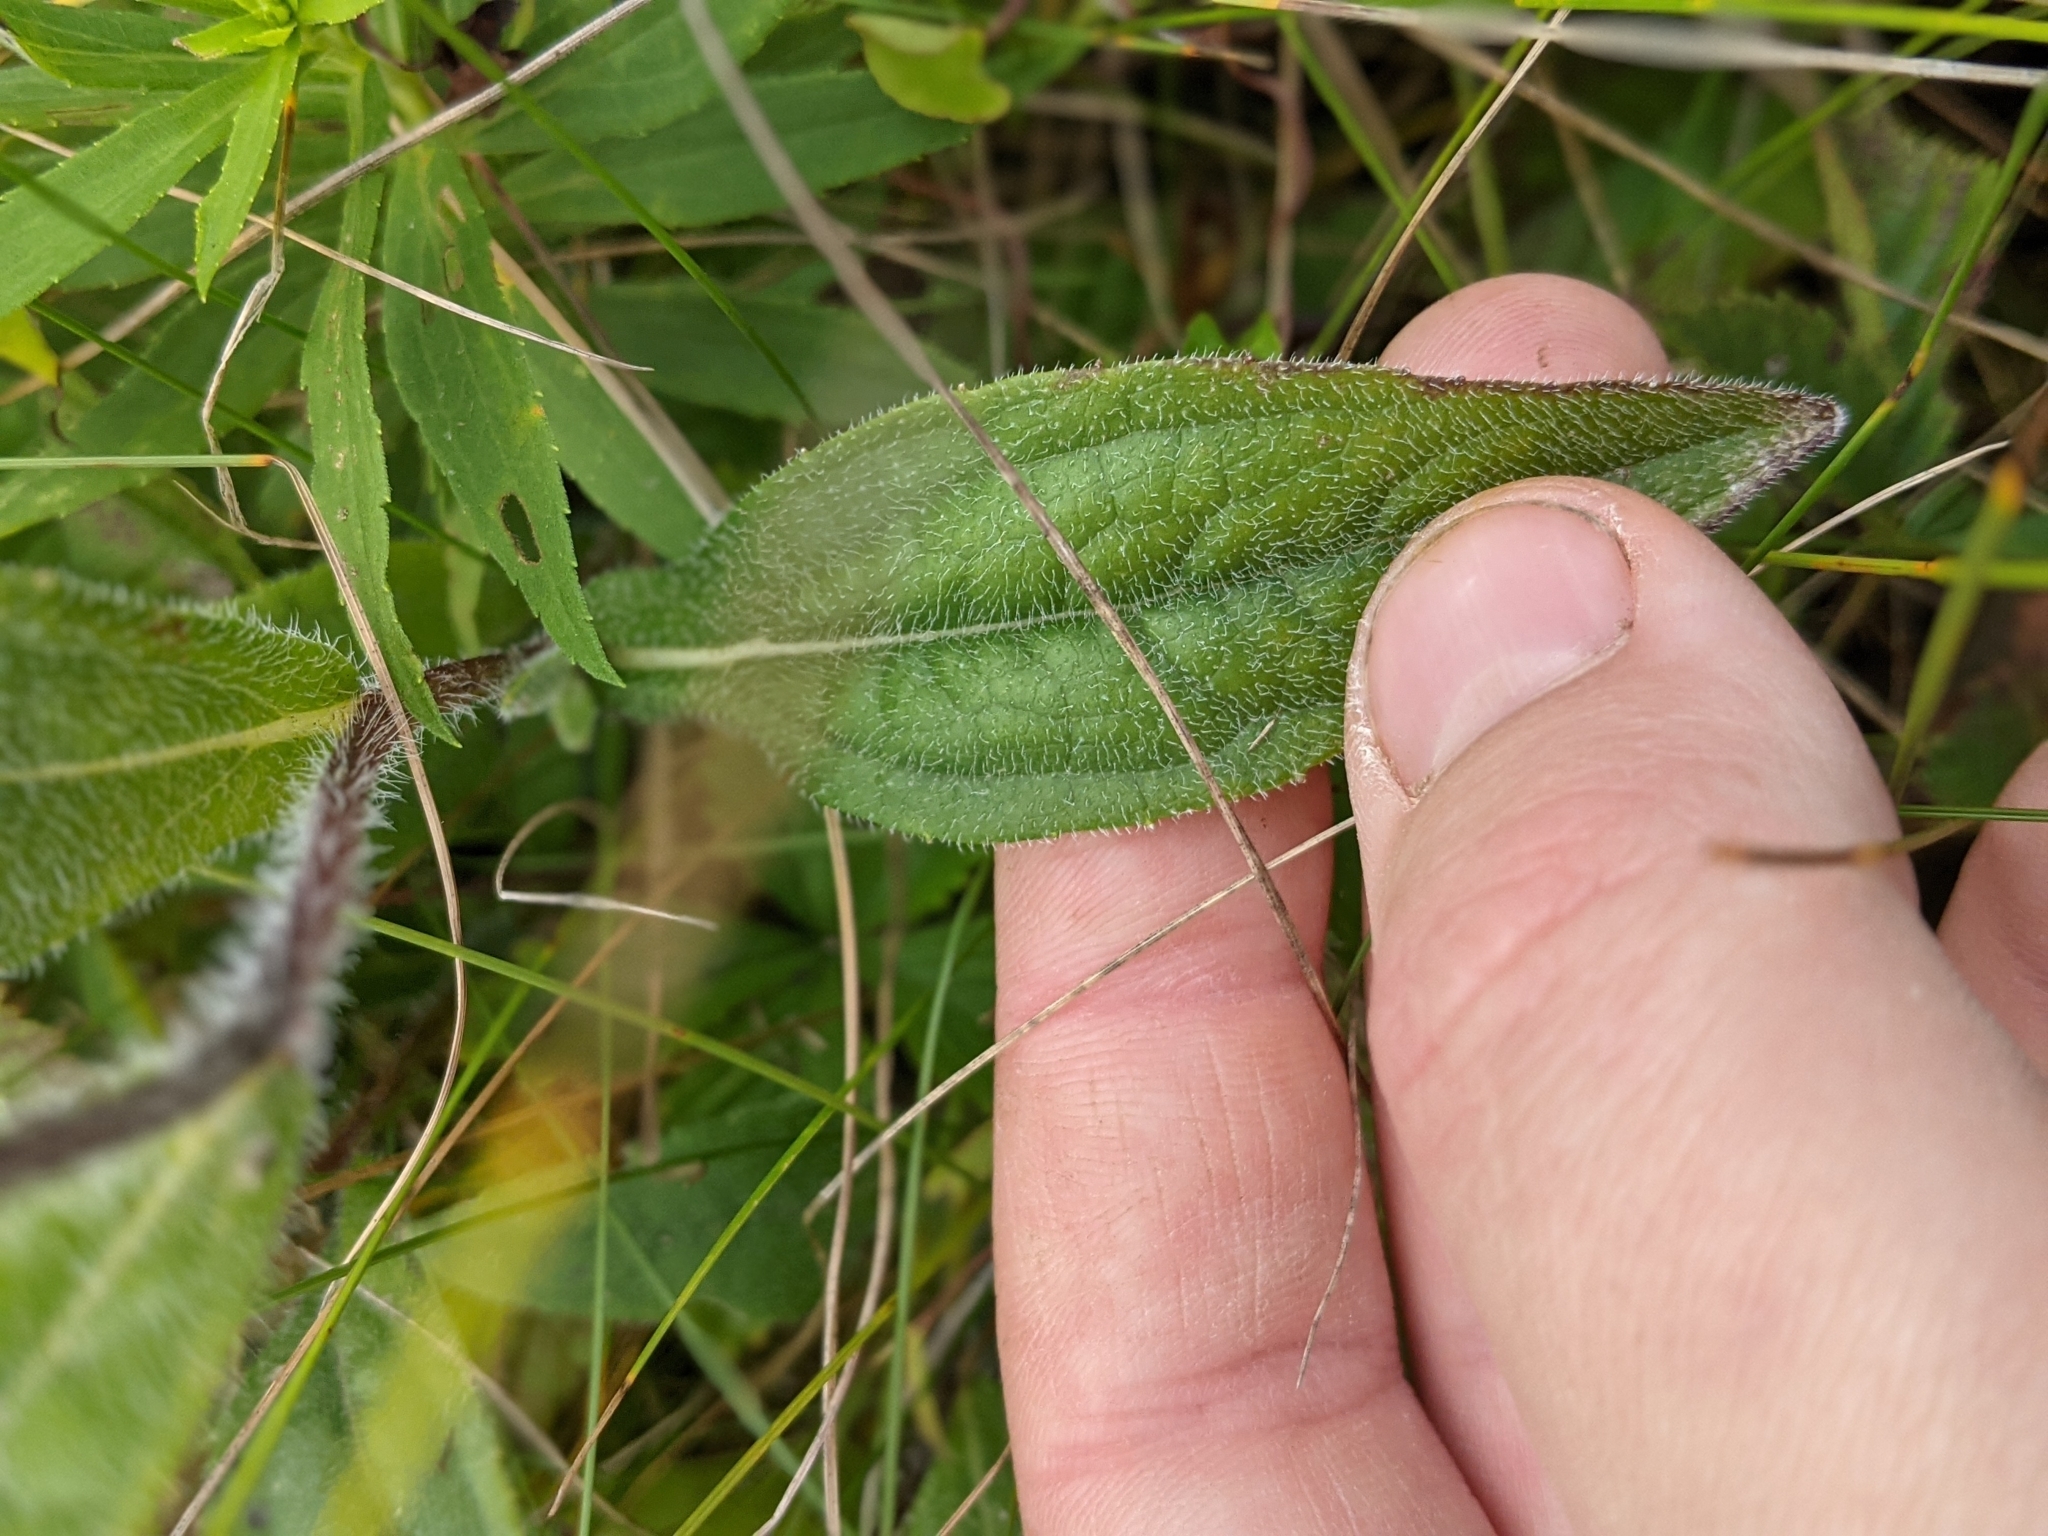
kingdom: Plantae
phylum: Tracheophyta
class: Magnoliopsida
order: Asterales
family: Asteraceae
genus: Rudbeckia
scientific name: Rudbeckia hirta
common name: Black-eyed-susan
